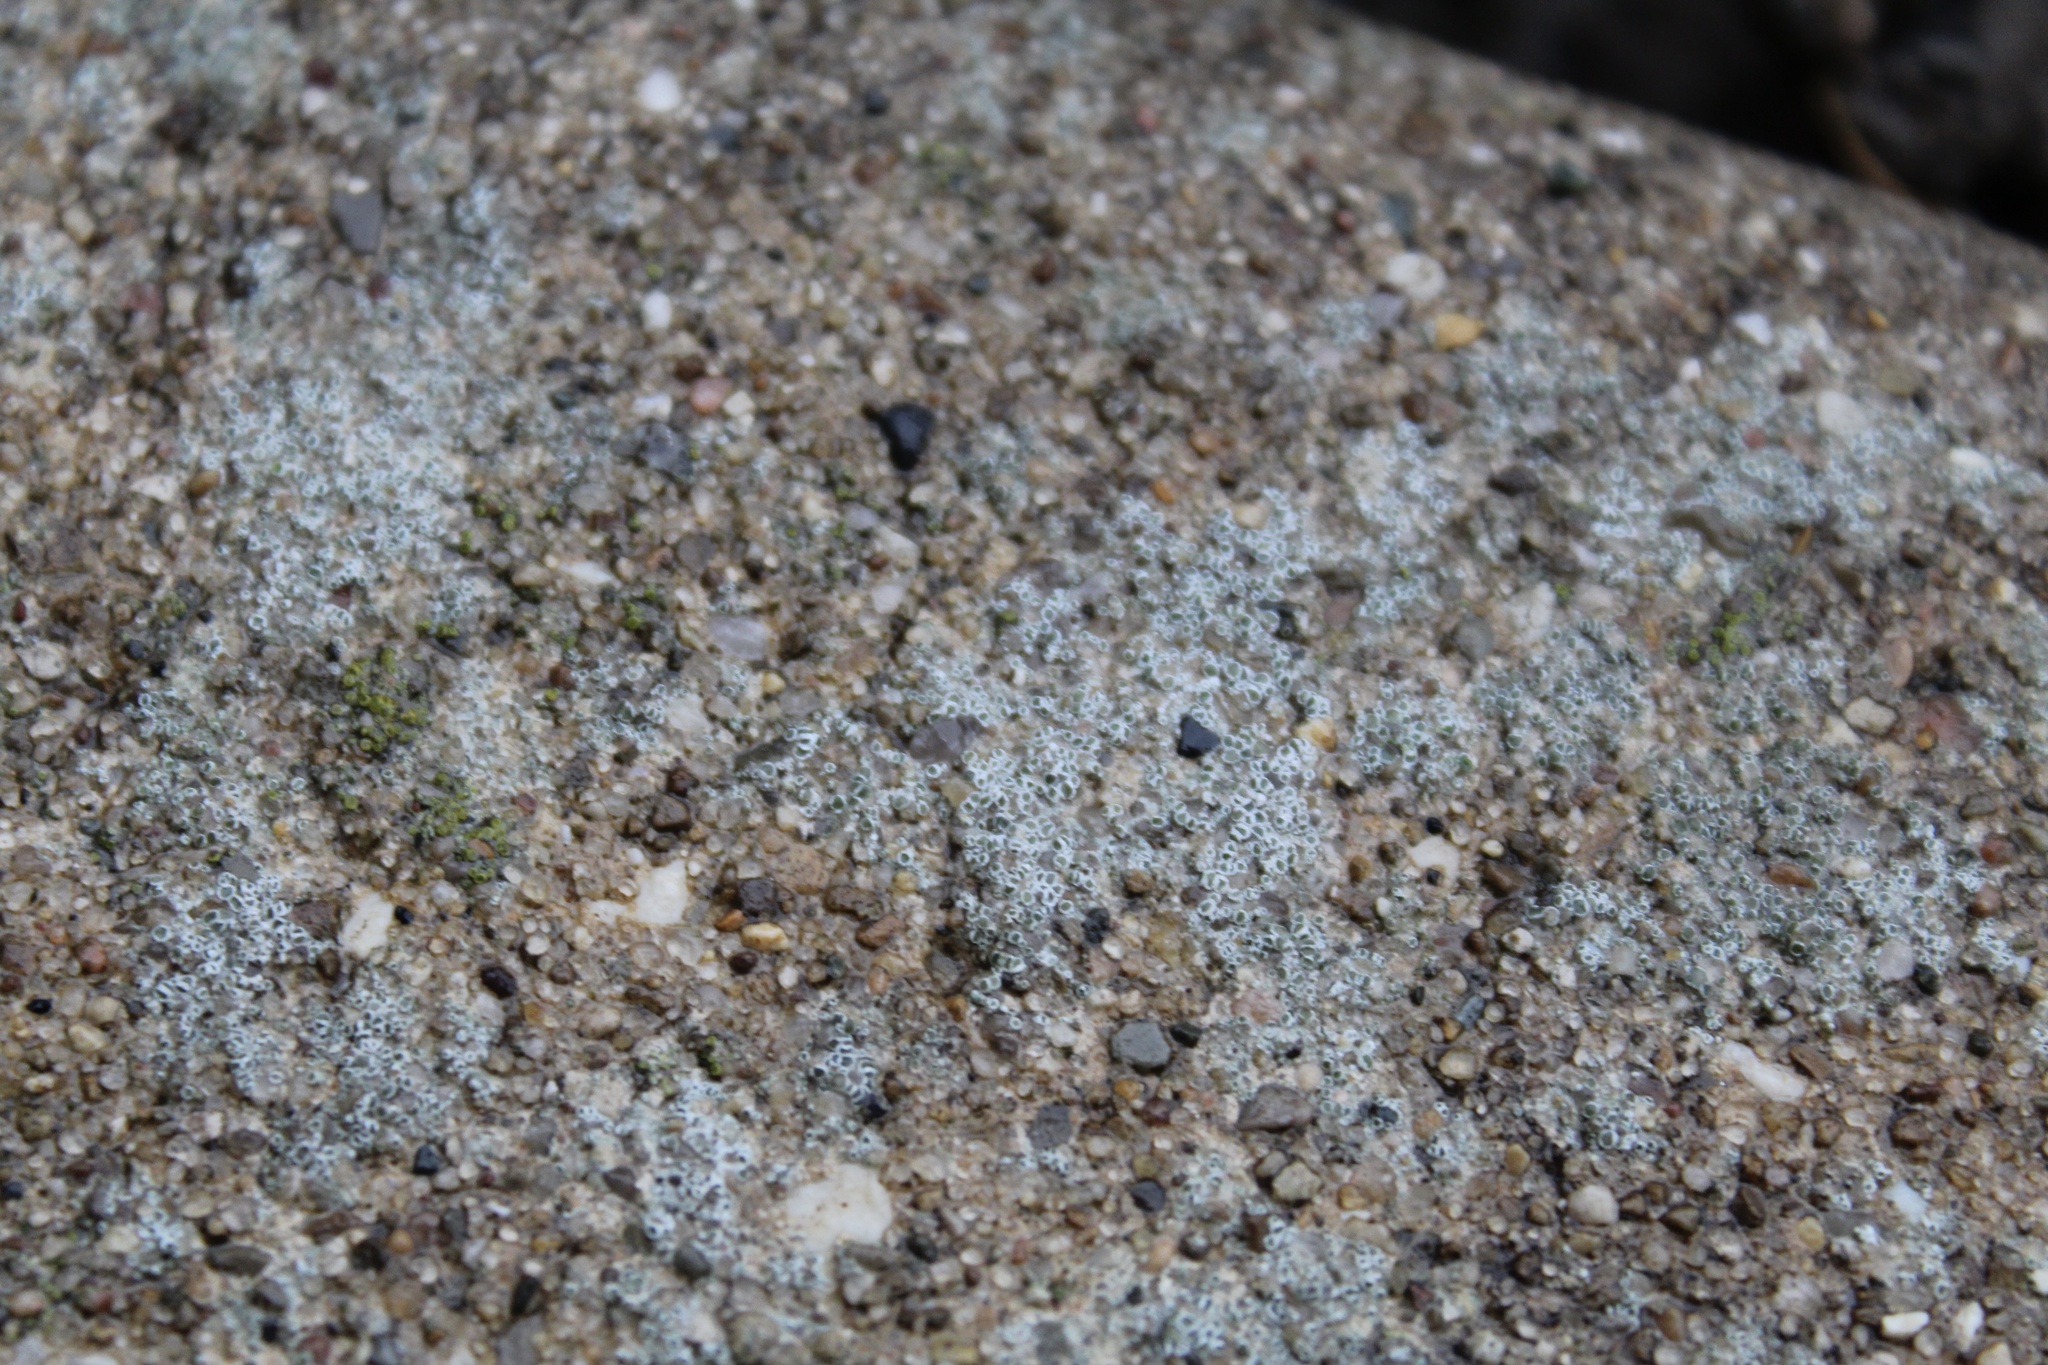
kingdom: Fungi
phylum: Ascomycota
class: Lecanoromycetes
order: Lecanorales
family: Lecanoraceae
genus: Polyozosia
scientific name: Polyozosia dispersa
